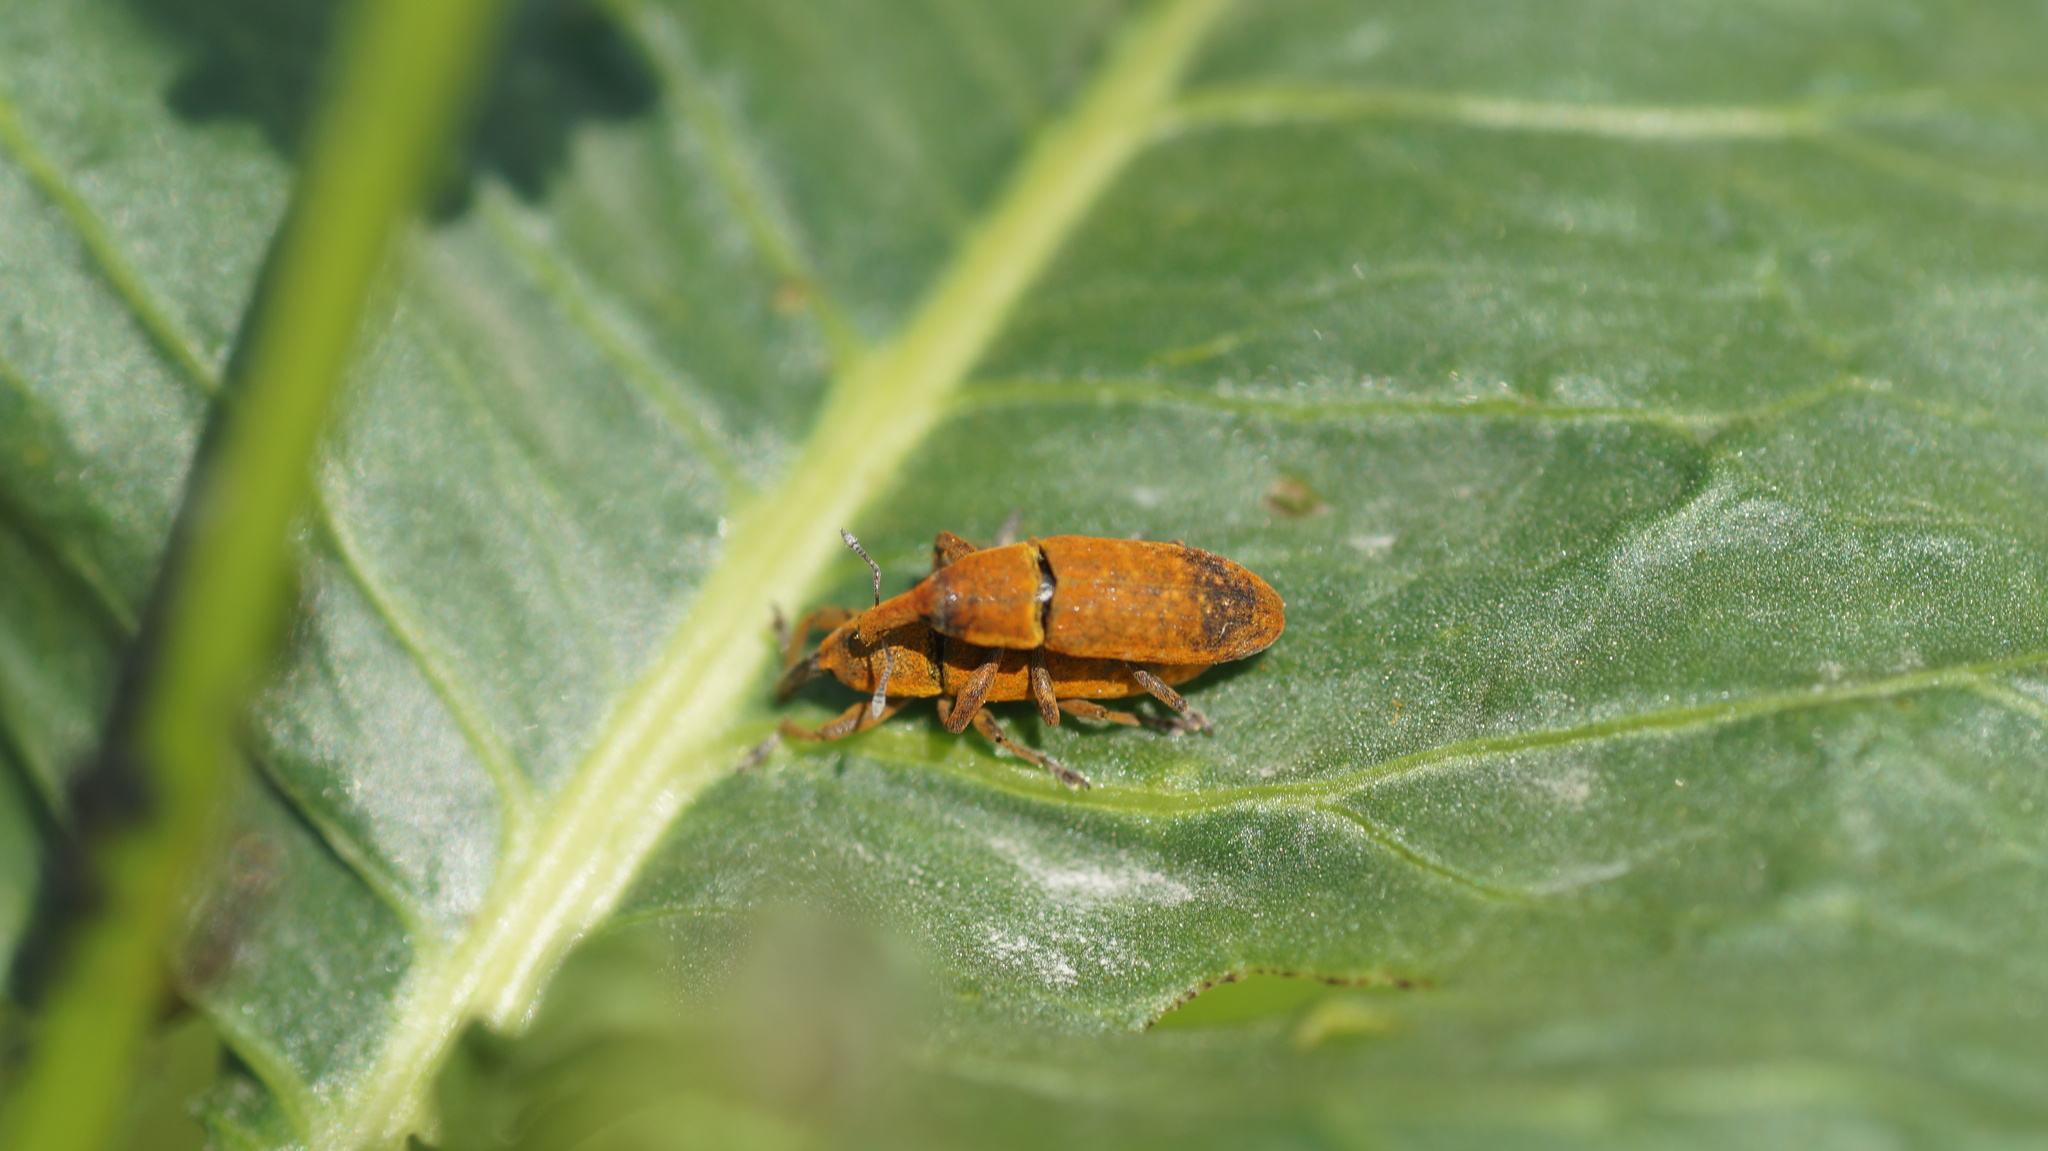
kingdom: Animalia
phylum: Arthropoda
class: Insecta
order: Coleoptera
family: Curculionidae
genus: Lixus
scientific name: Lixus bardanae
